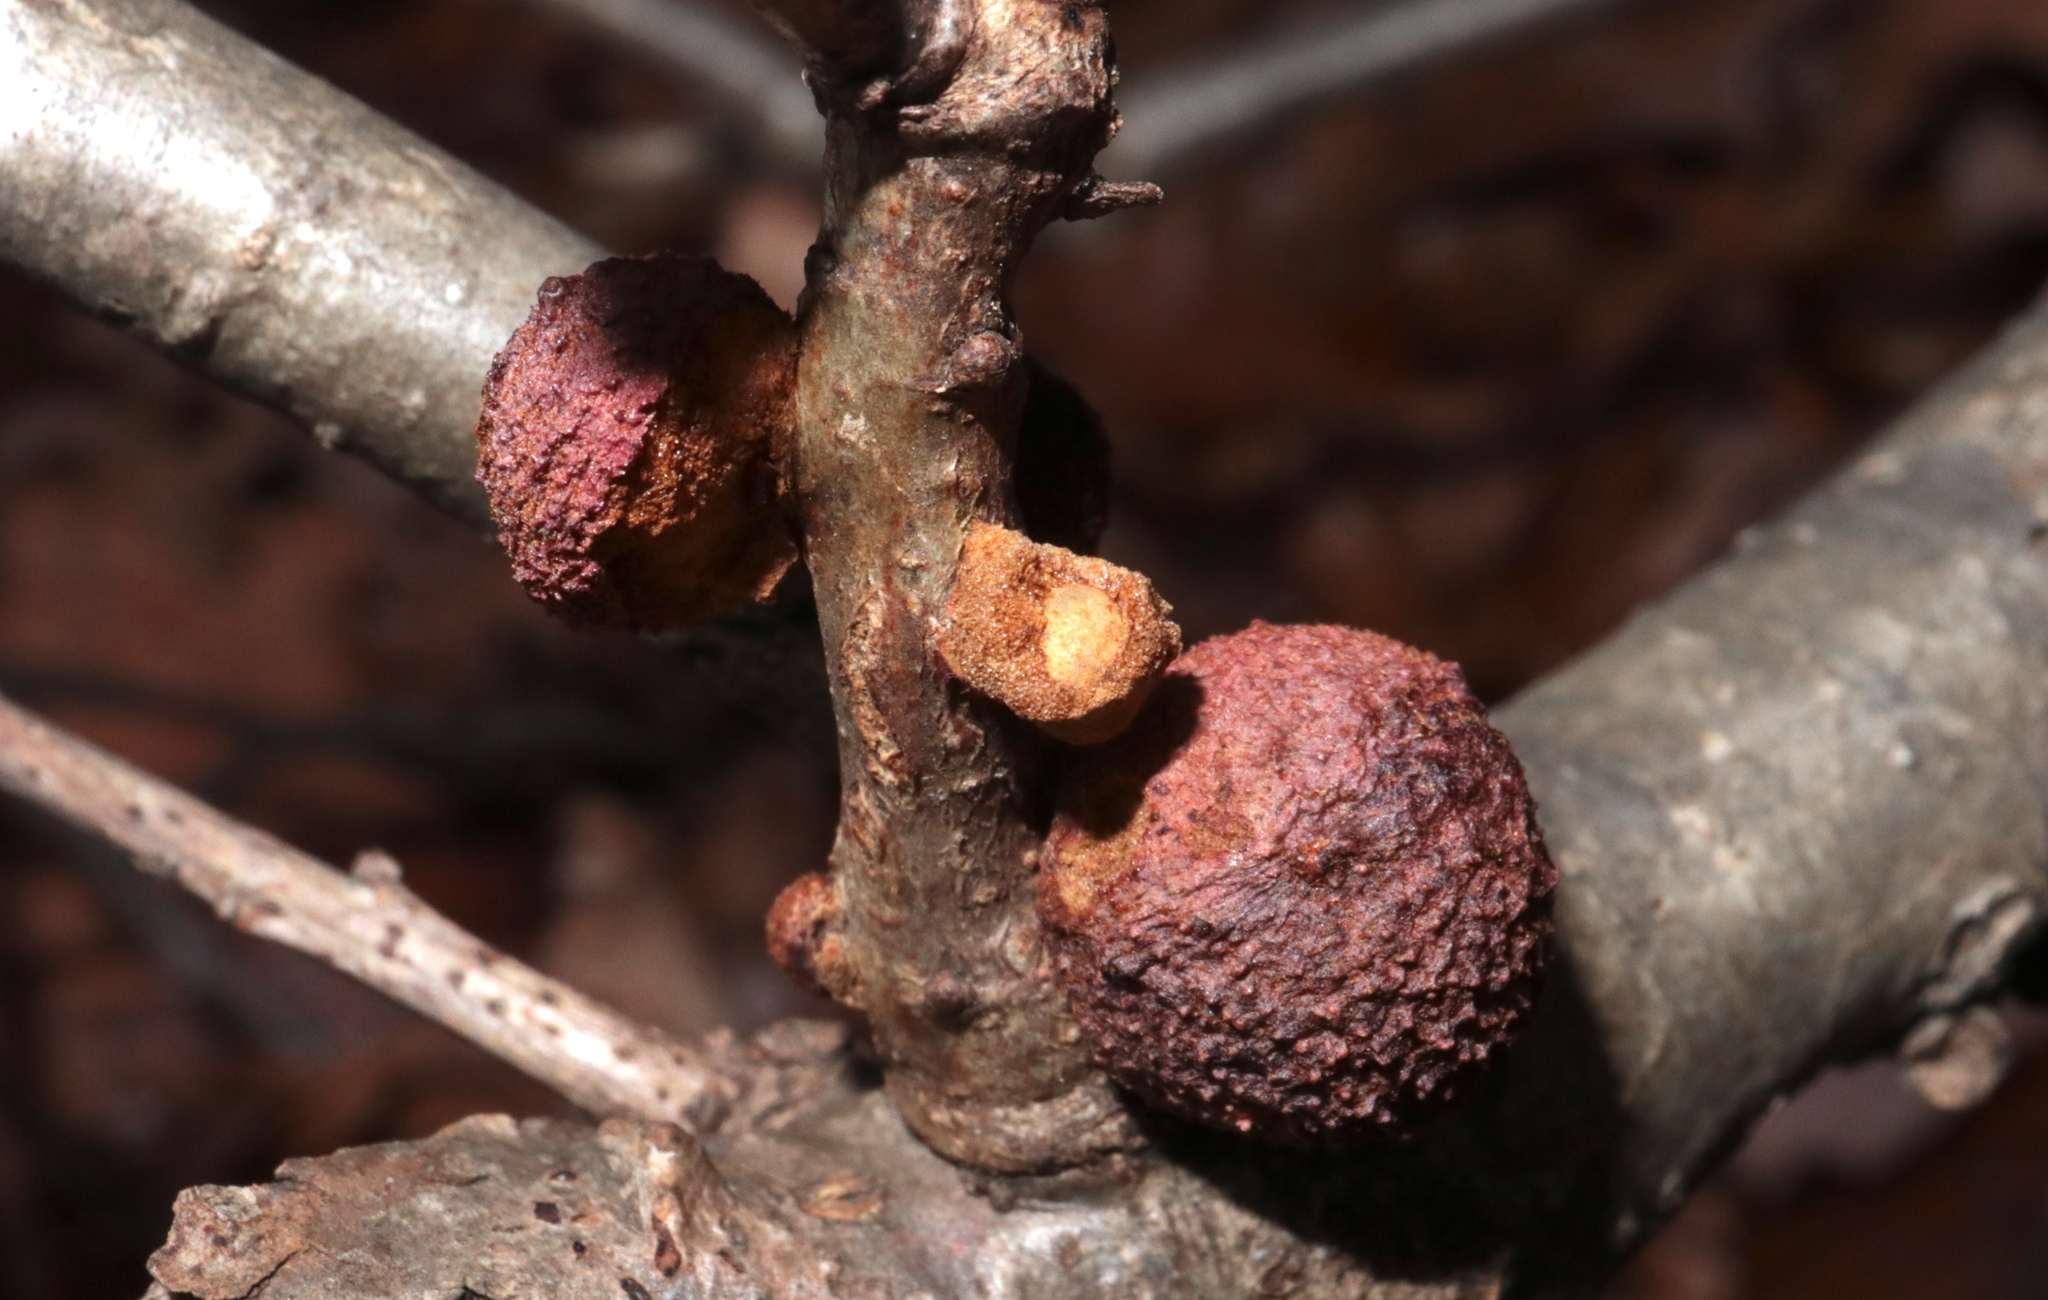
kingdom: Animalia
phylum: Arthropoda
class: Insecta
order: Hymenoptera
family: Cynipidae
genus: Disholcaspis
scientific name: Disholcaspis
